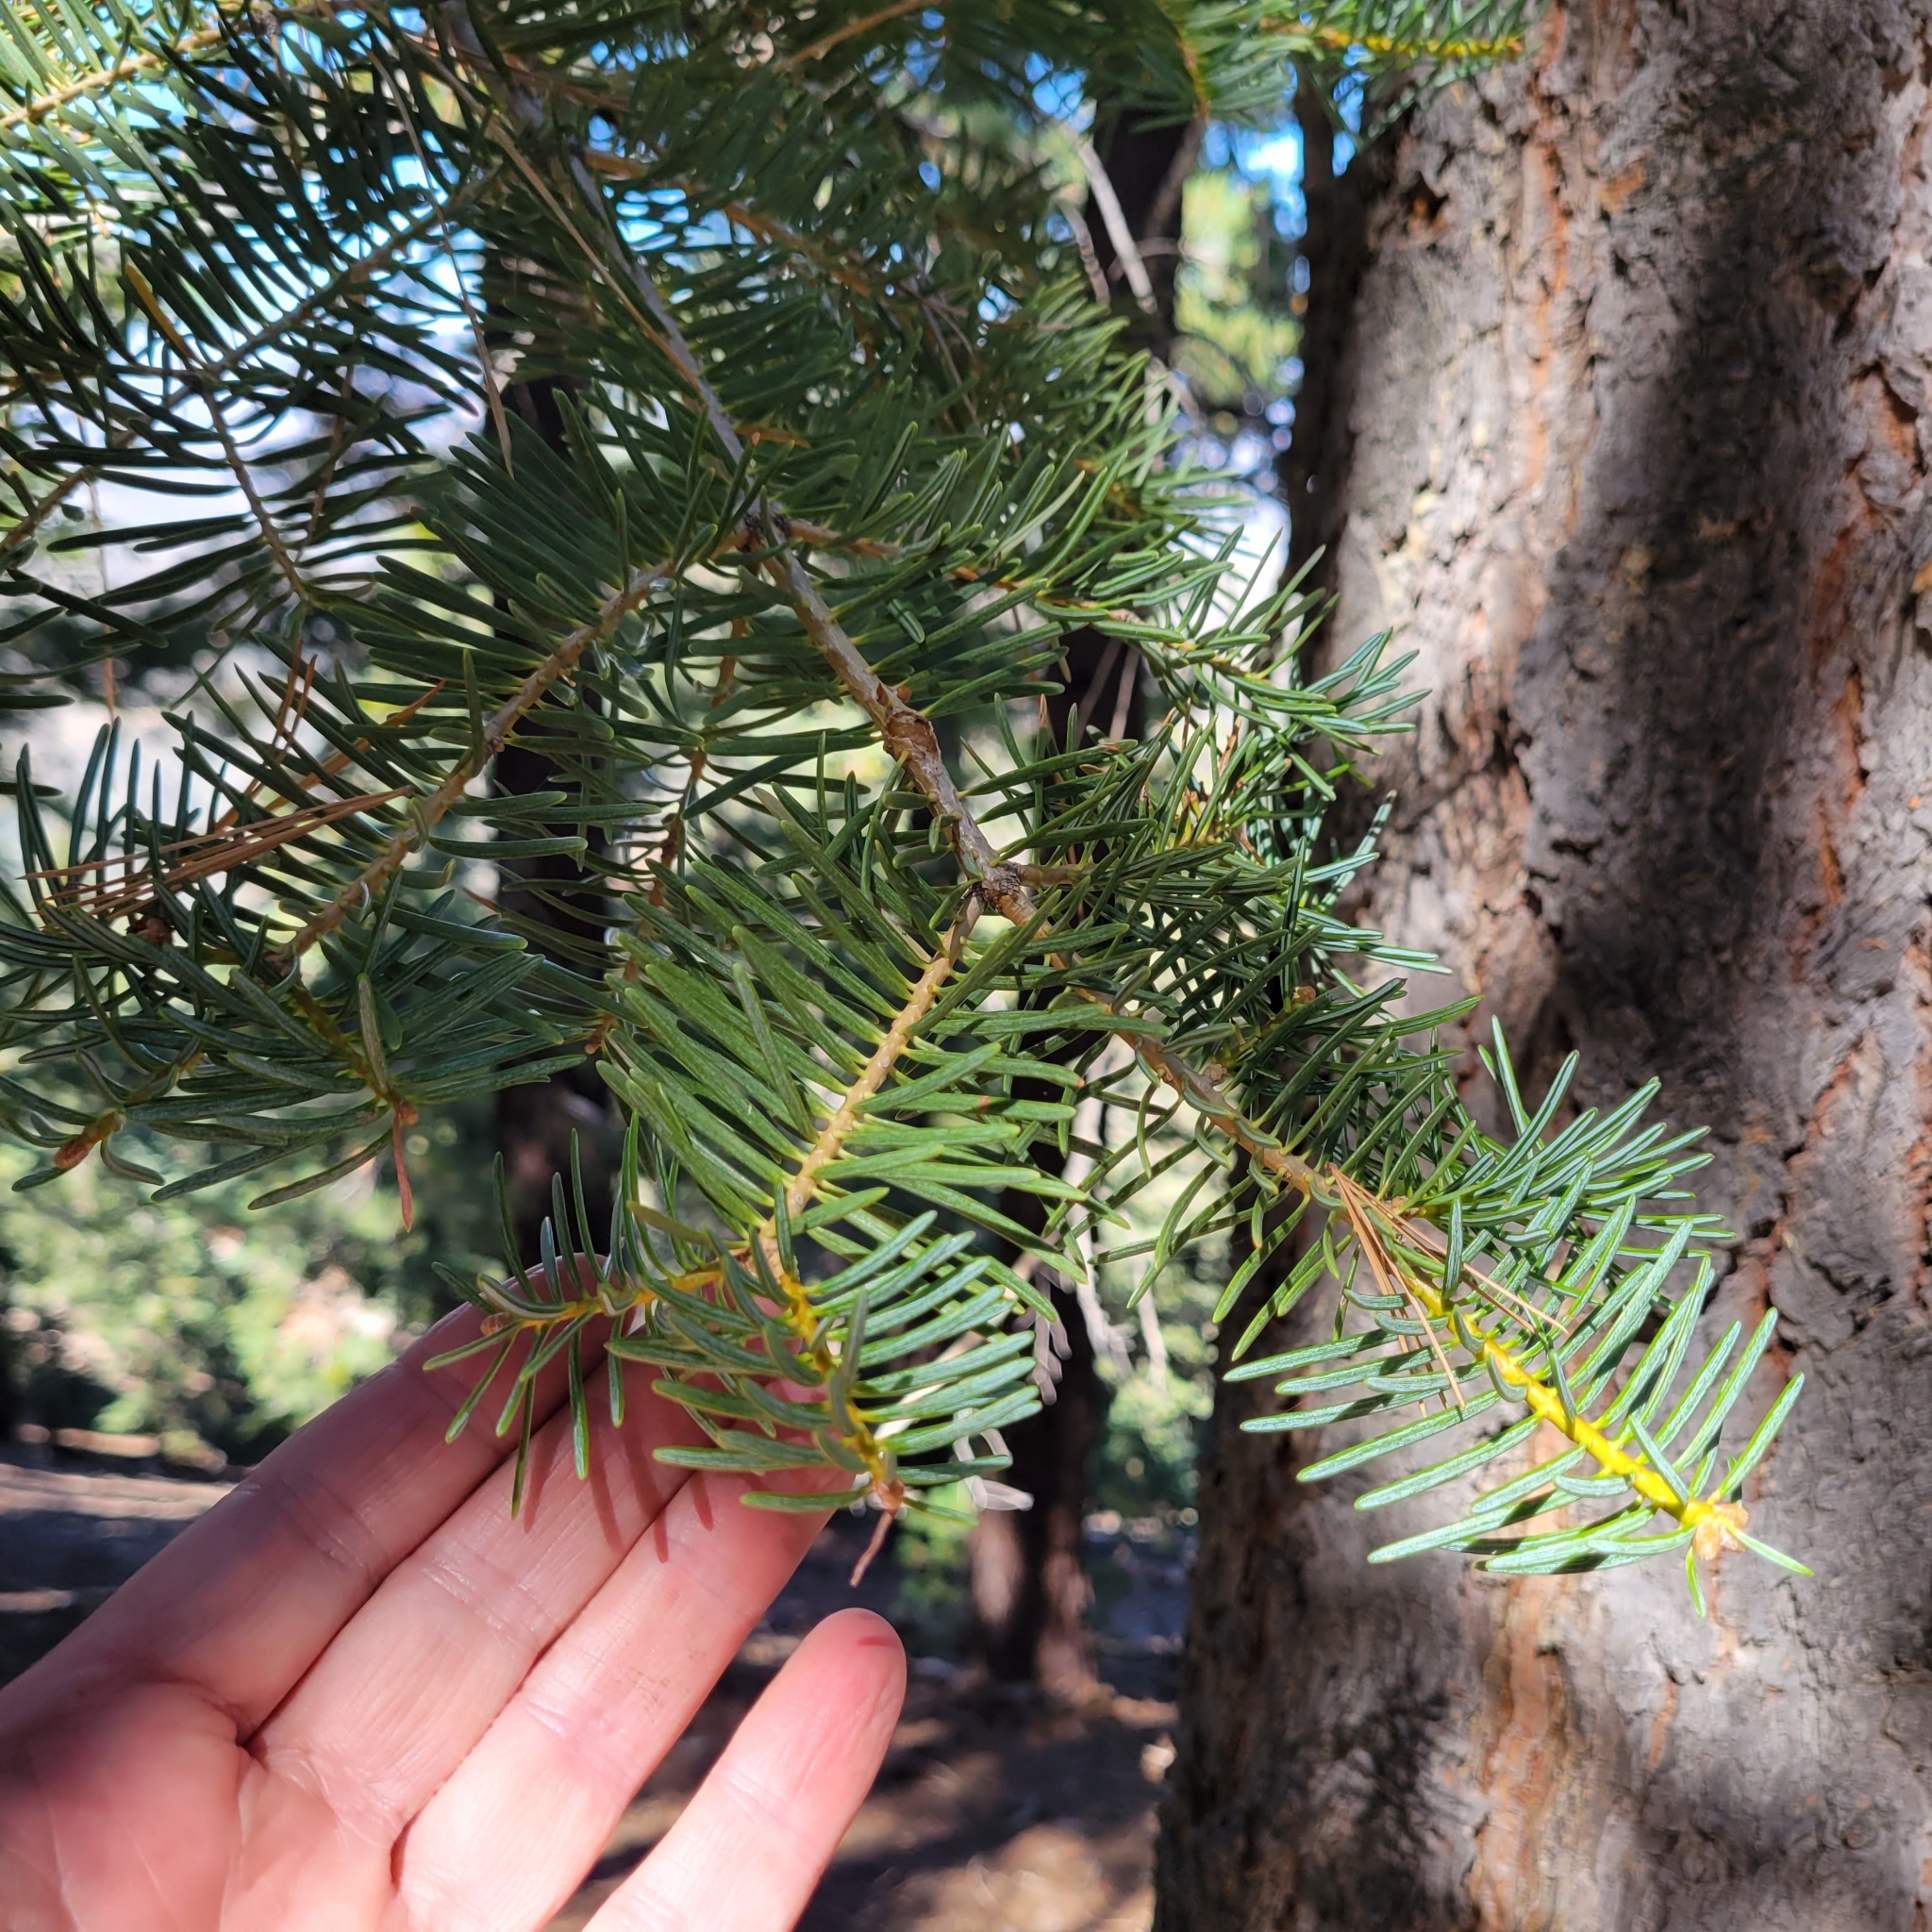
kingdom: Plantae
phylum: Tracheophyta
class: Pinopsida
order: Pinales
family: Pinaceae
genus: Abies
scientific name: Abies concolor
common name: Colorado fir
